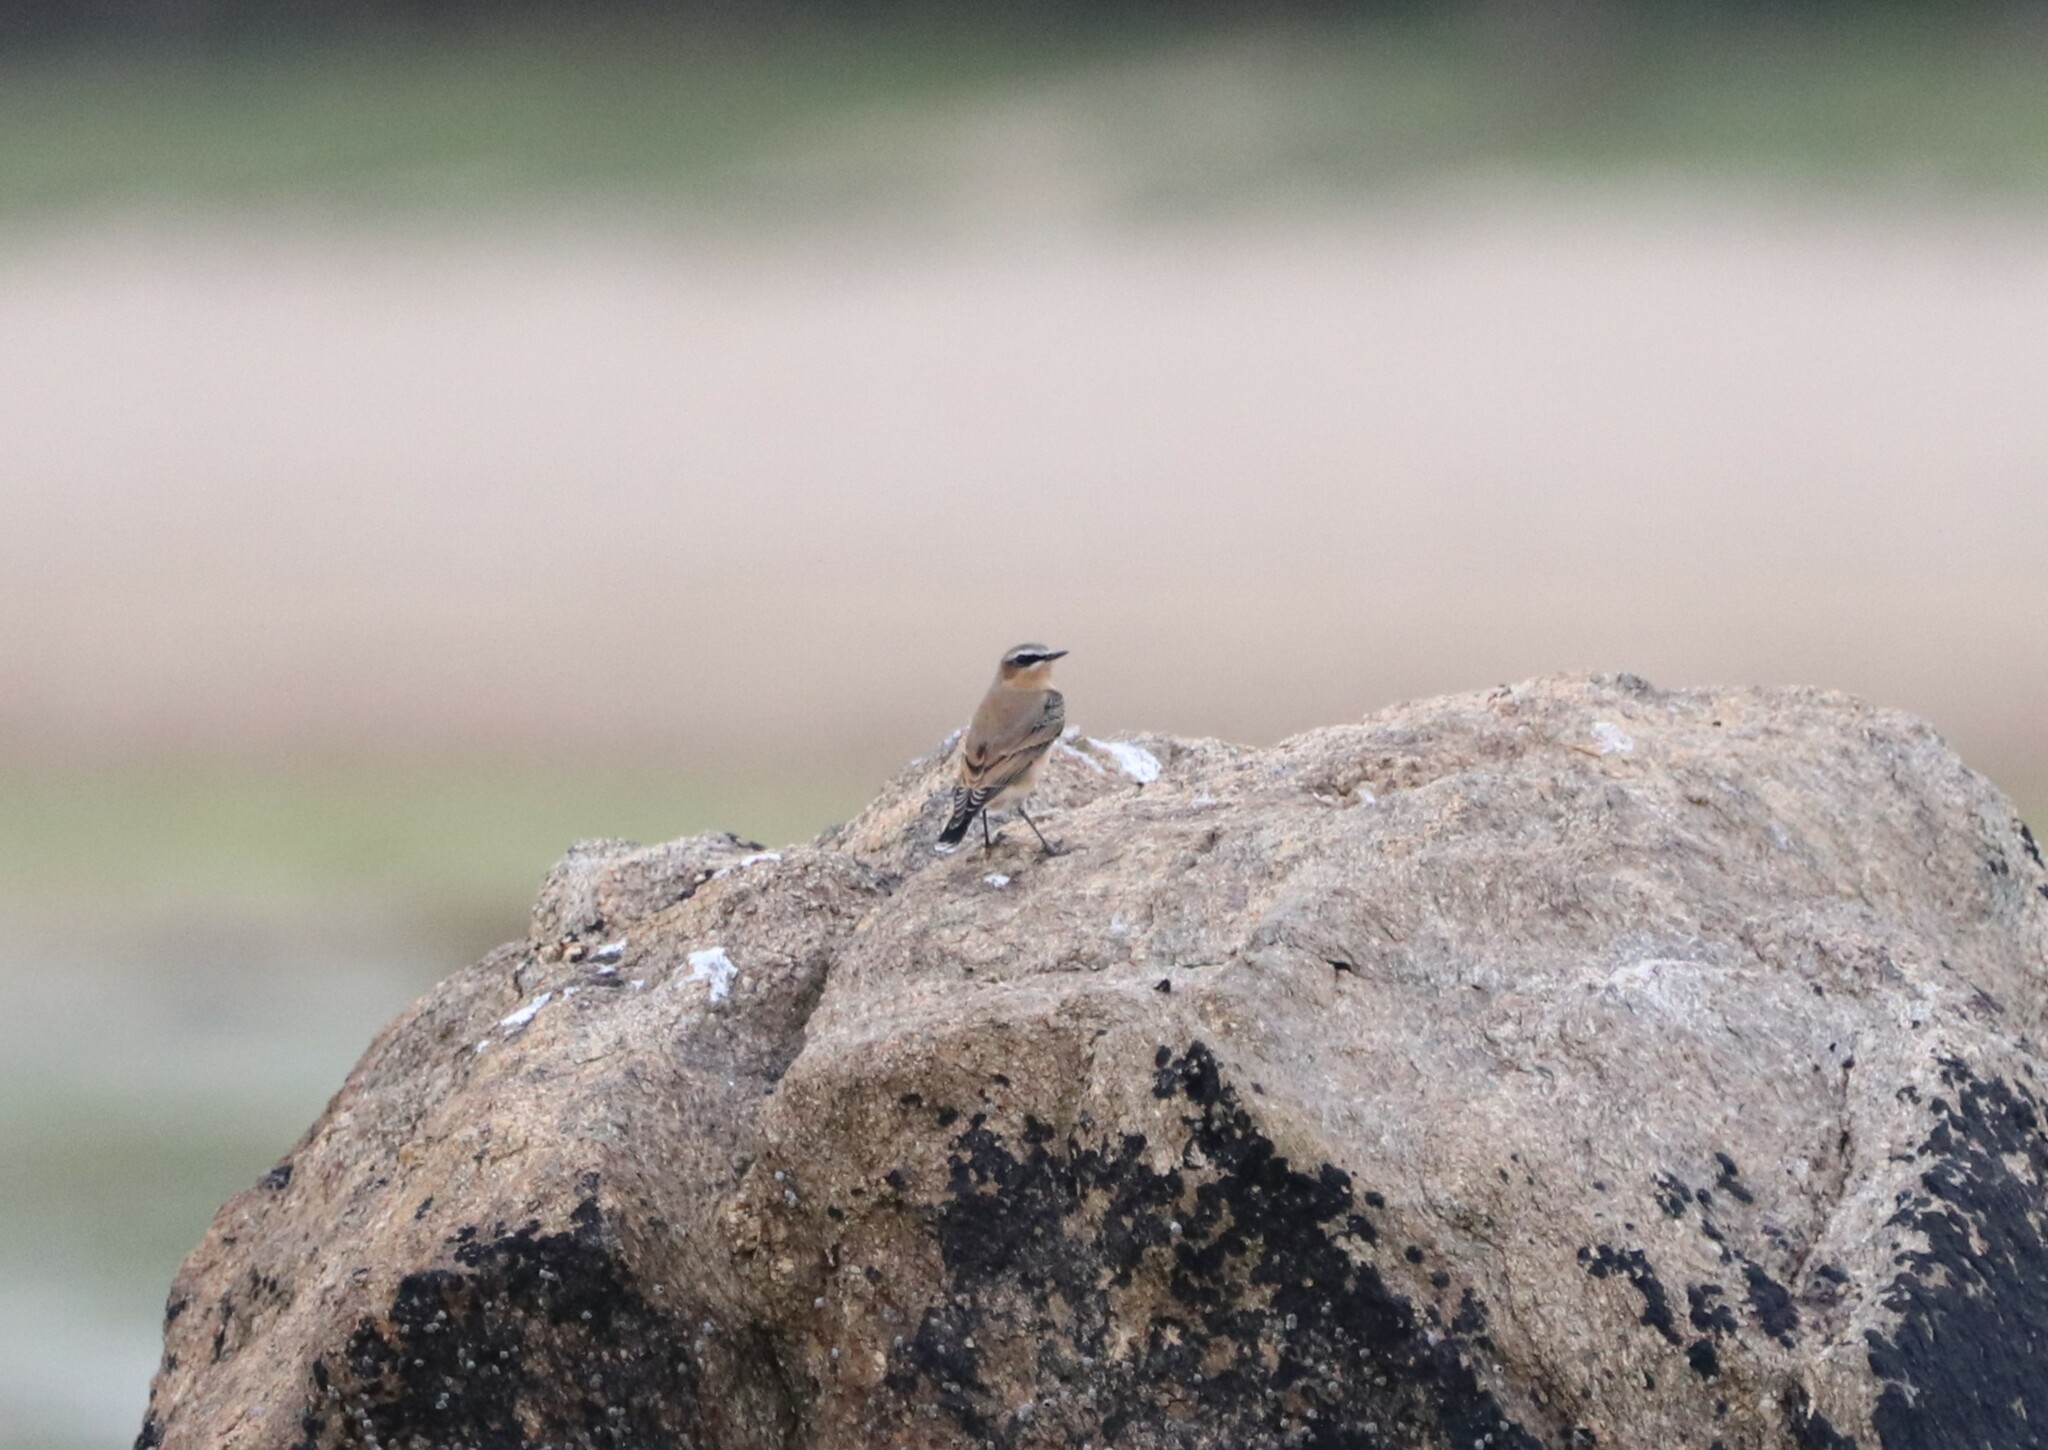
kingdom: Animalia
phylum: Chordata
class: Aves
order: Passeriformes
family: Muscicapidae
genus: Oenanthe
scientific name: Oenanthe oenanthe
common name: Northern wheatear
